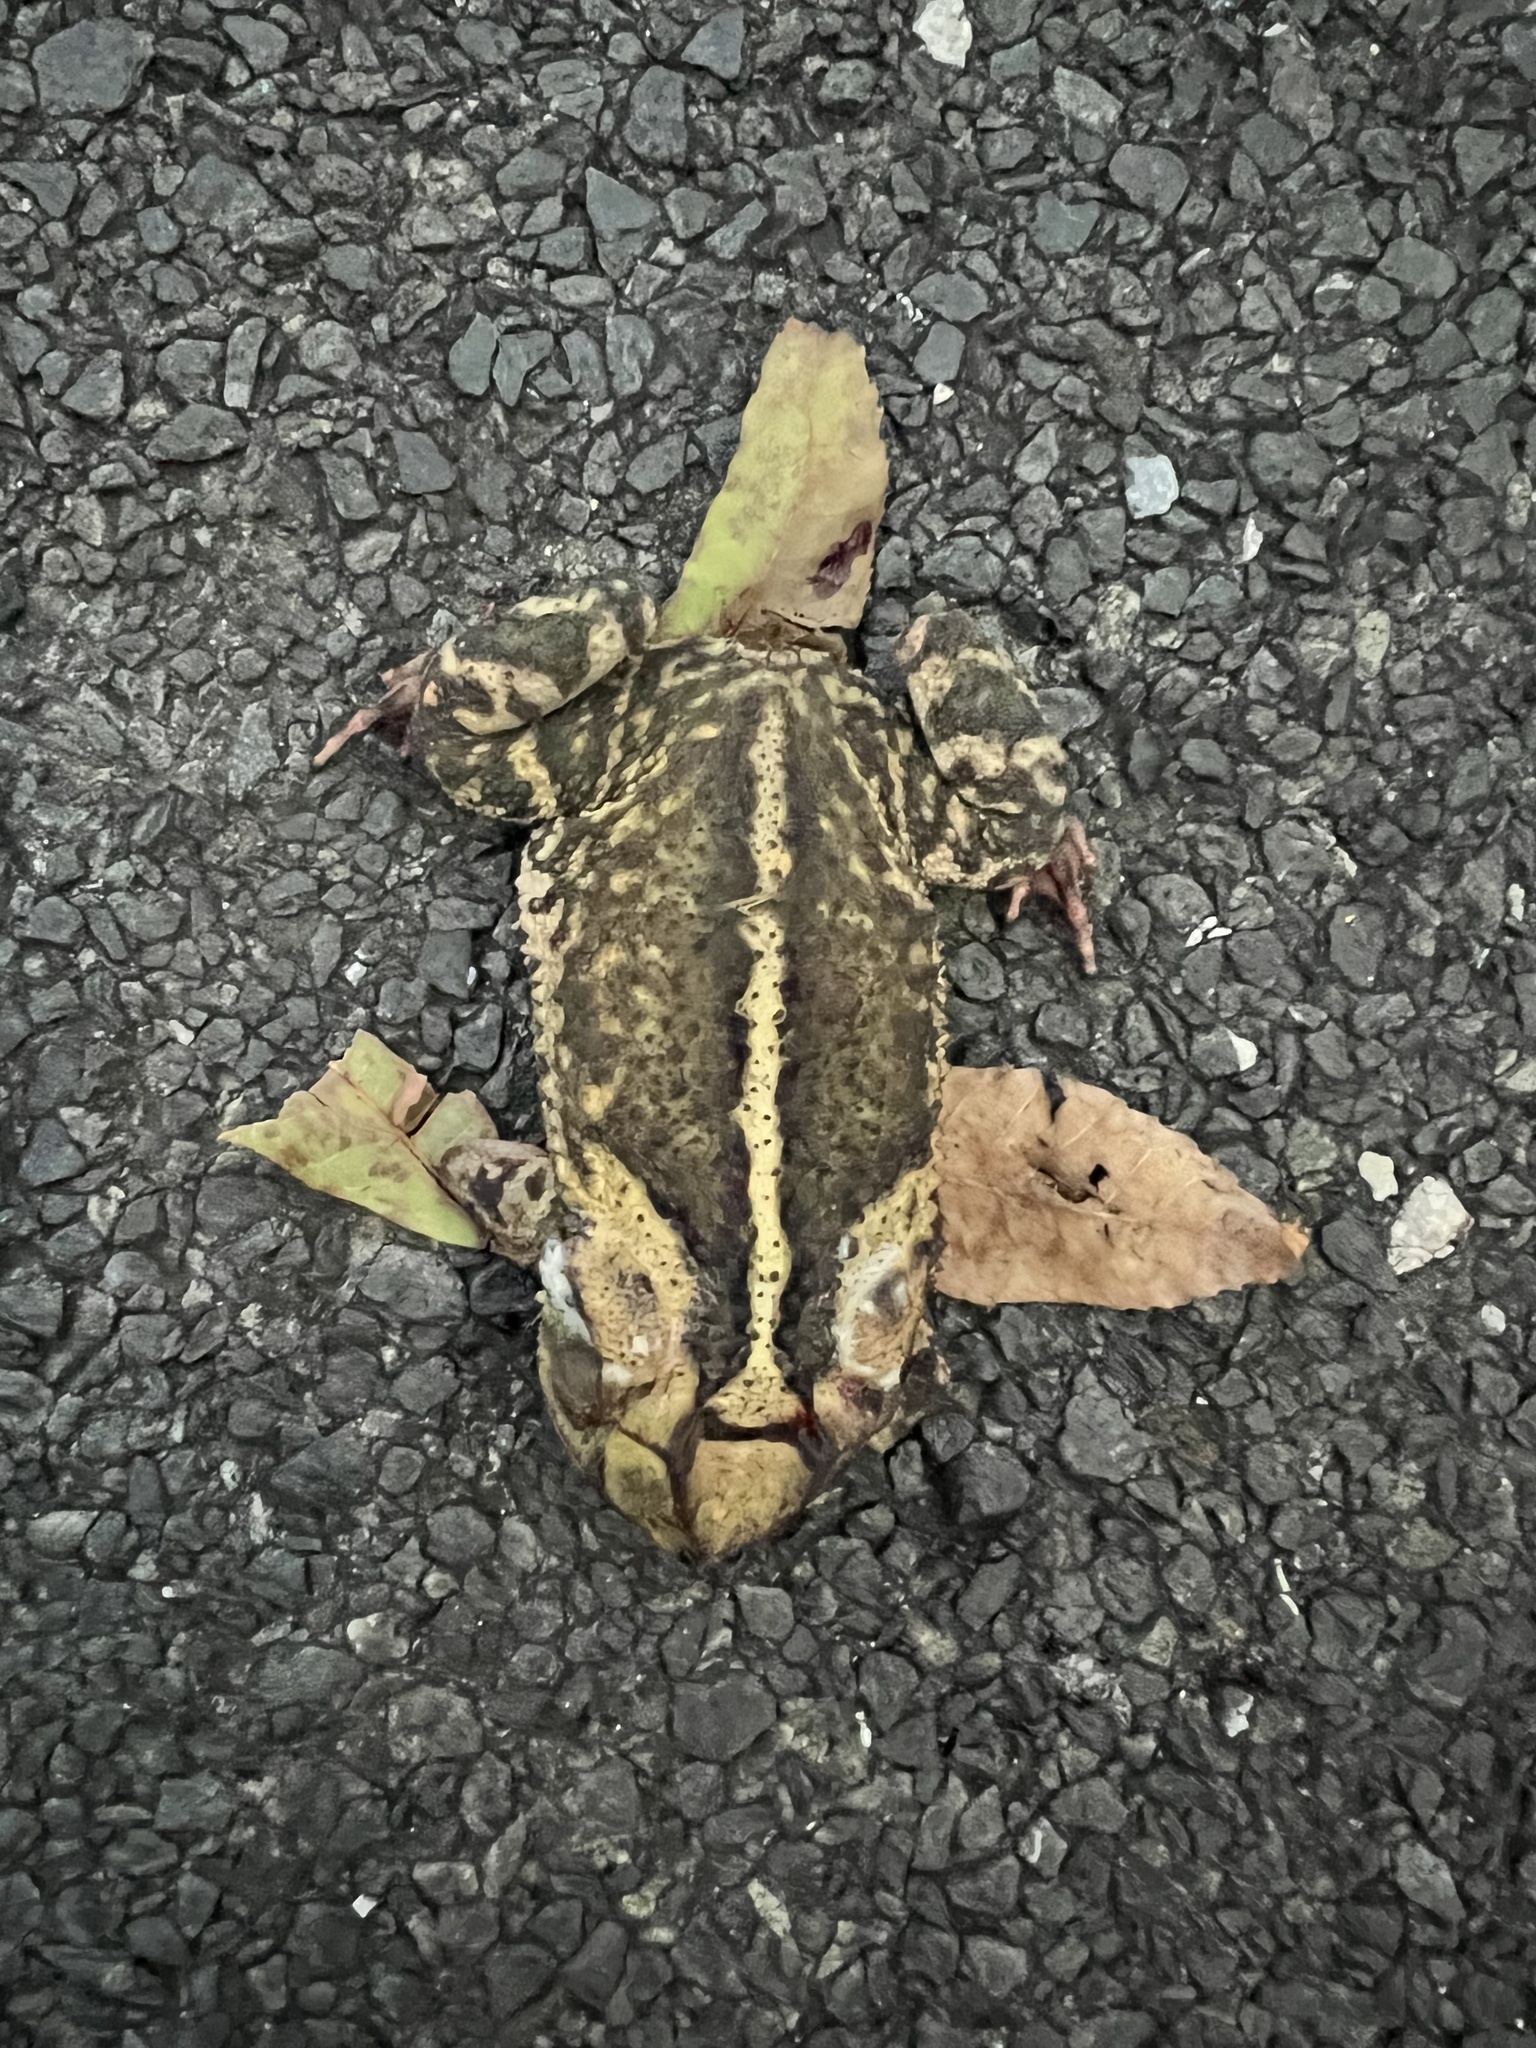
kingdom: Animalia
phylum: Chordata
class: Amphibia
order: Anura
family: Bufonidae
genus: Incilius
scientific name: Incilius nebulifer
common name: Gulf coast toad
